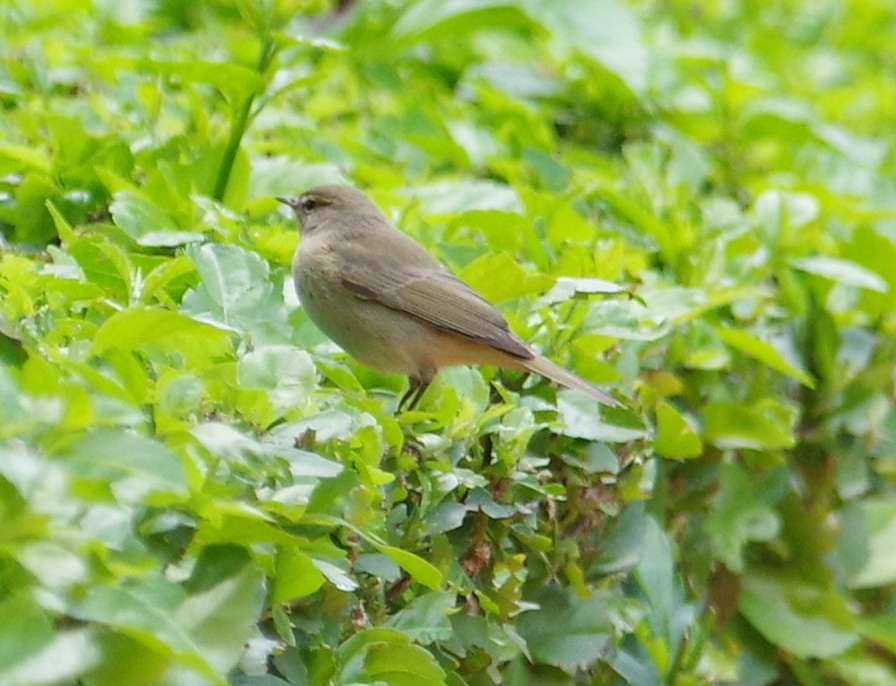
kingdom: Animalia
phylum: Chordata
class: Aves
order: Passeriformes
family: Phylloscopidae
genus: Phylloscopus
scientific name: Phylloscopus collybita
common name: Common chiffchaff
